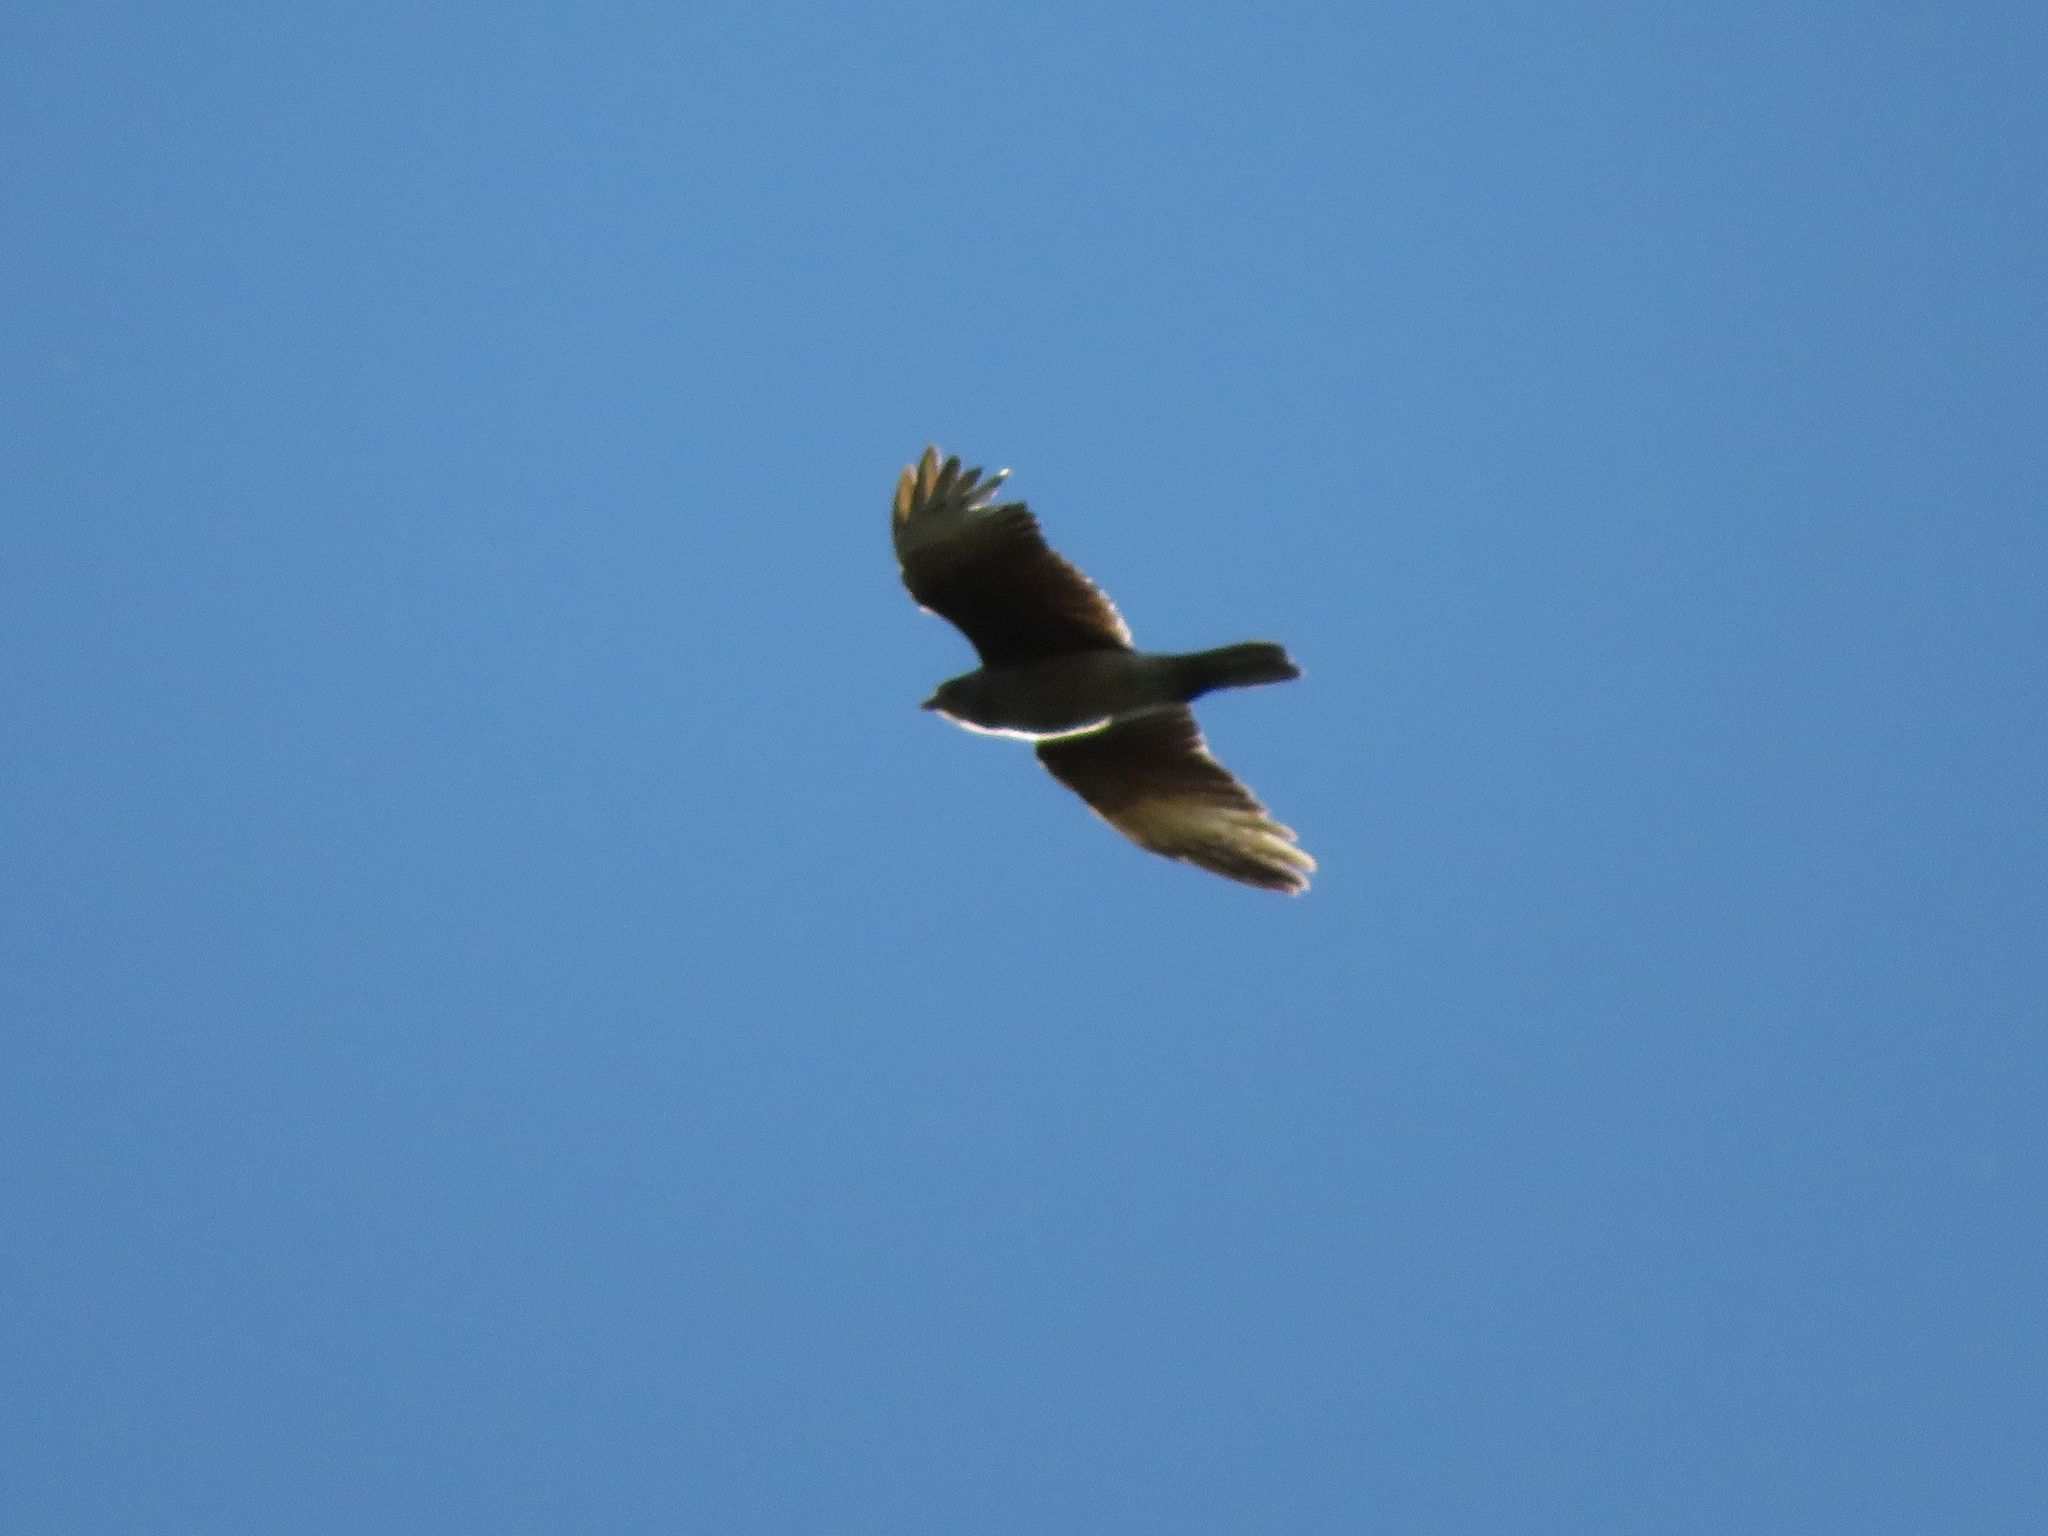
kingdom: Animalia
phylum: Chordata
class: Aves
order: Falconiformes
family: Falconidae
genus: Daptrius
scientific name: Daptrius
